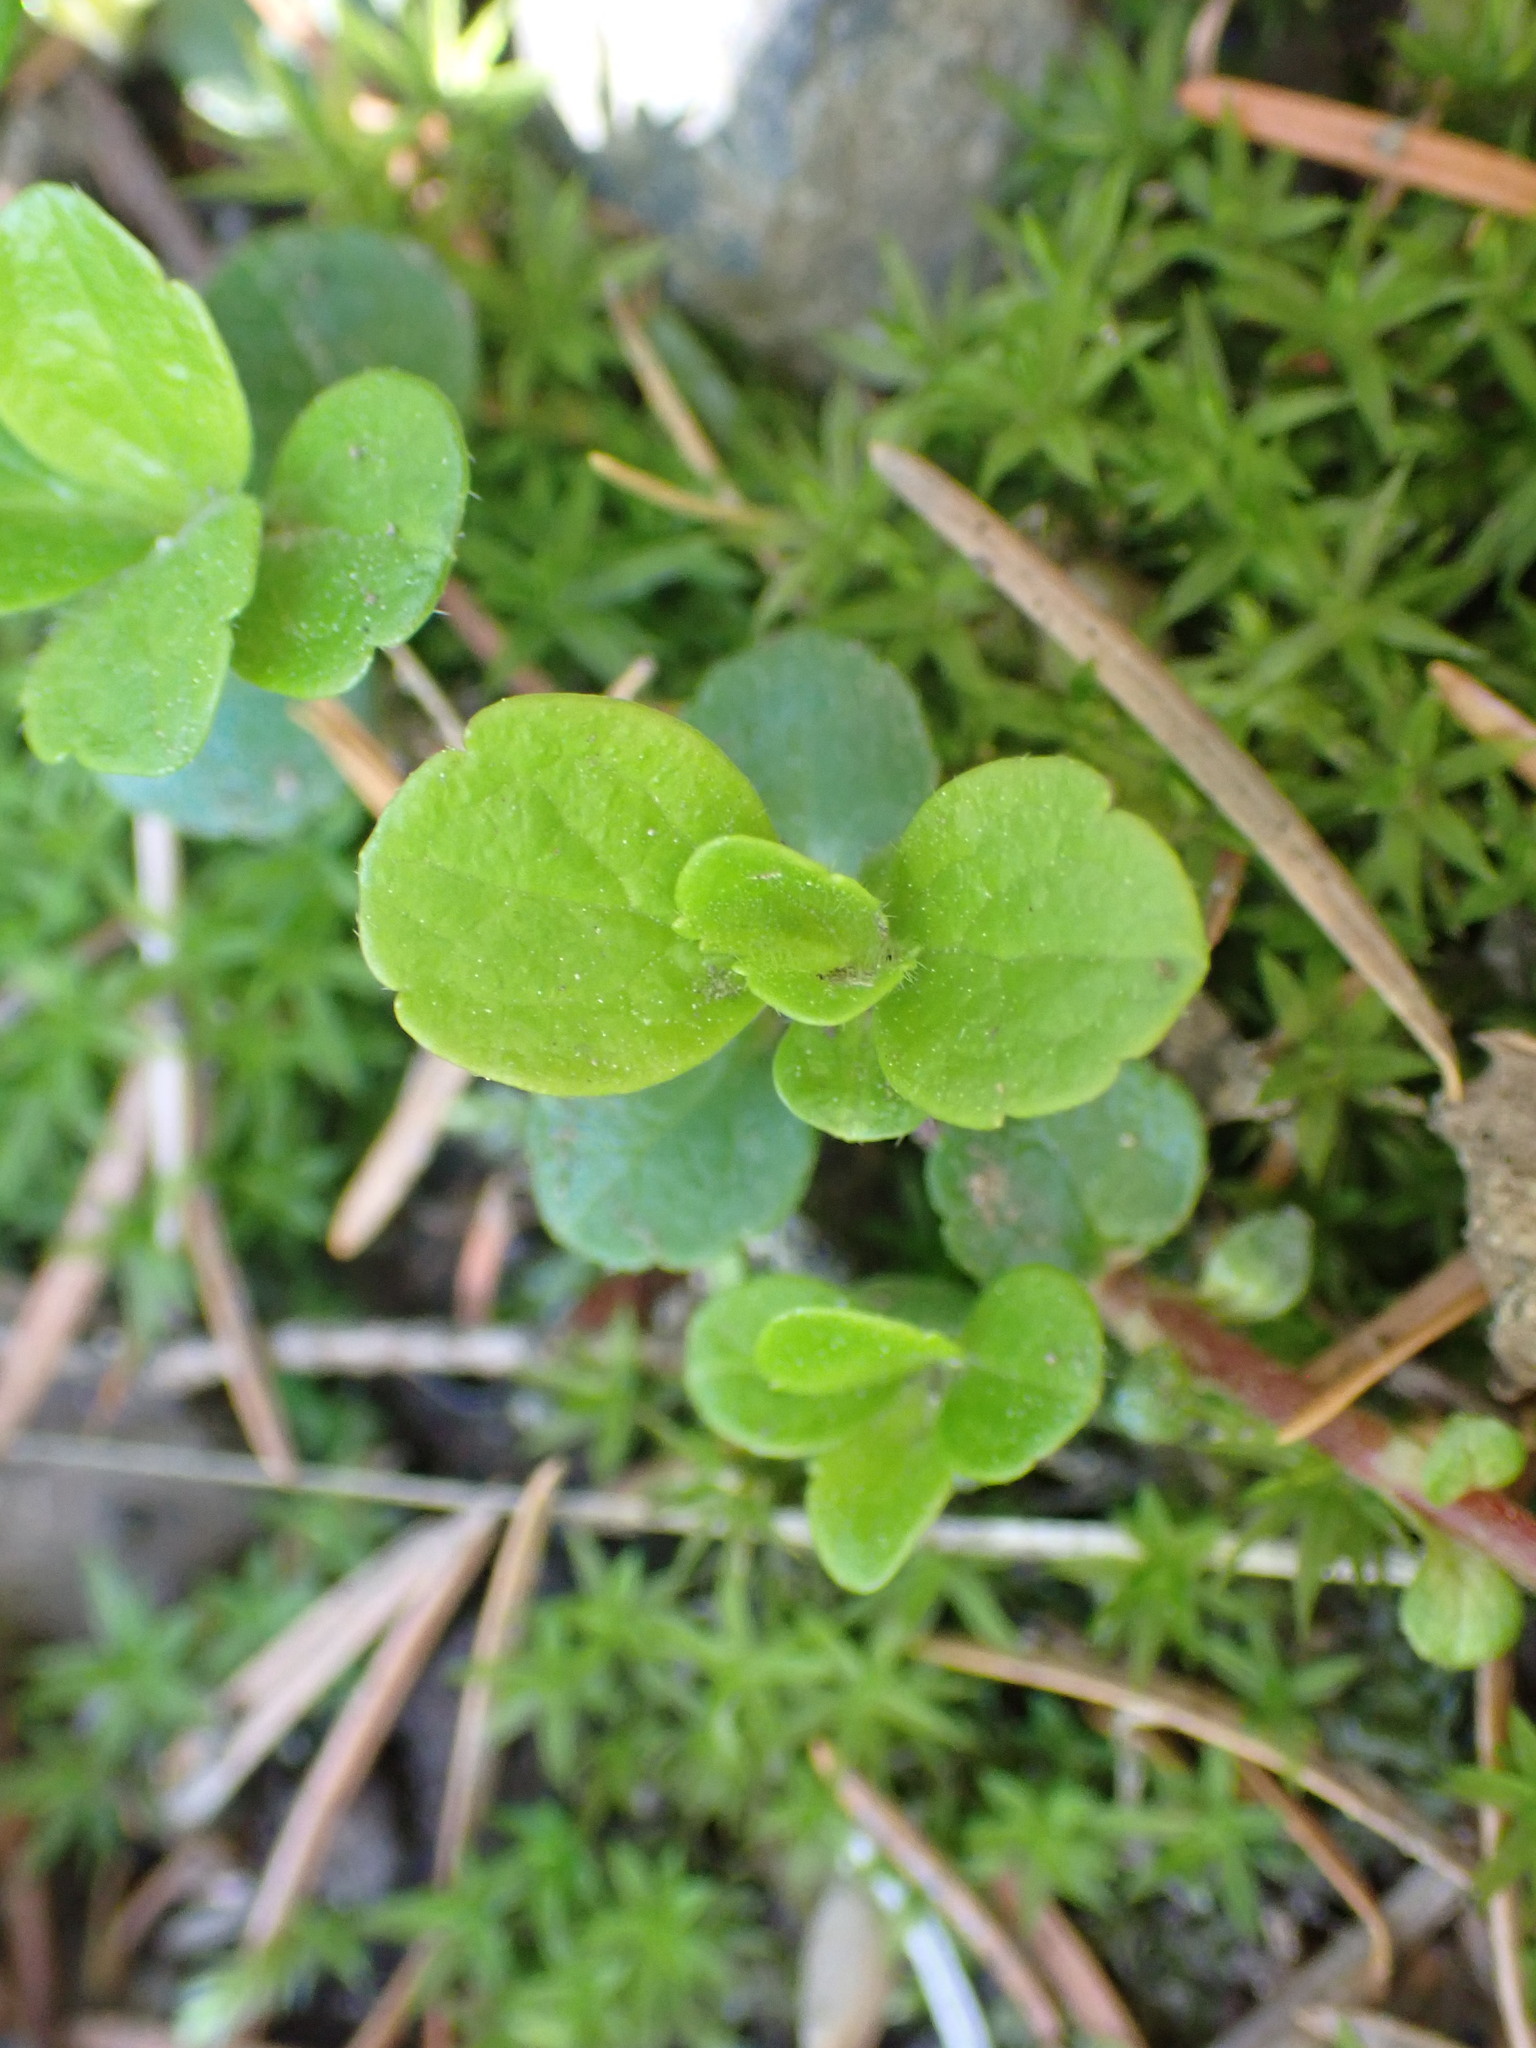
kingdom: Plantae
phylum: Tracheophyta
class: Magnoliopsida
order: Dipsacales
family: Caprifoliaceae
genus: Linnaea
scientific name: Linnaea borealis
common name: Twinflower
